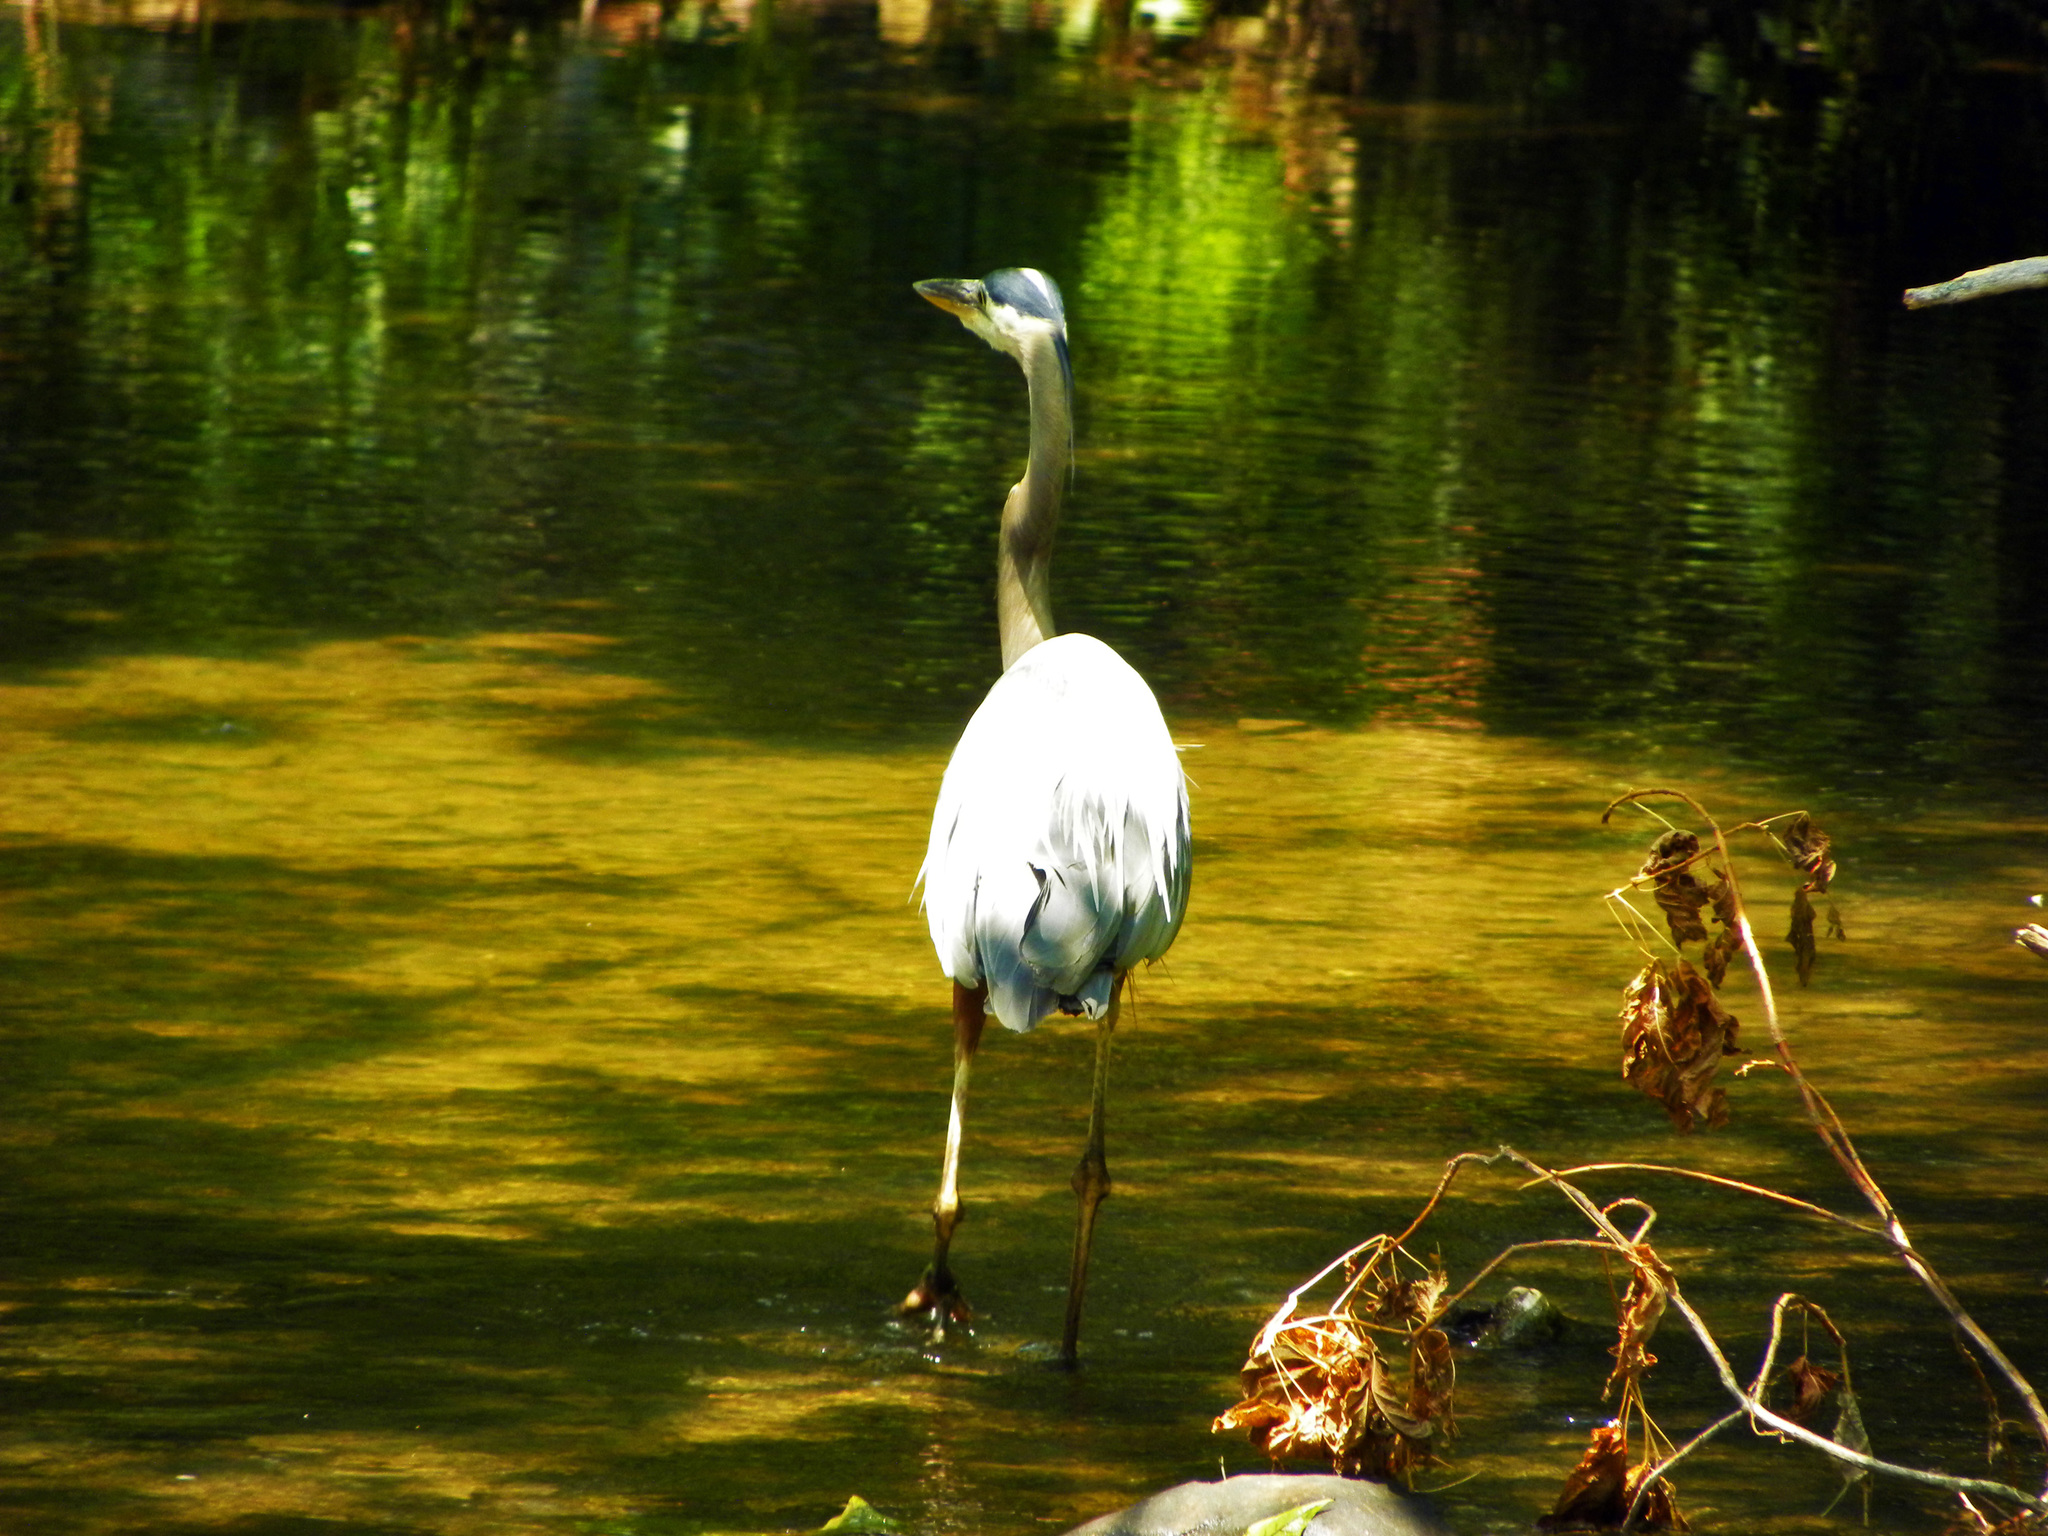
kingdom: Animalia
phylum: Chordata
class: Aves
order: Pelecaniformes
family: Ardeidae
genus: Ardea
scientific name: Ardea herodias
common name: Great blue heron
